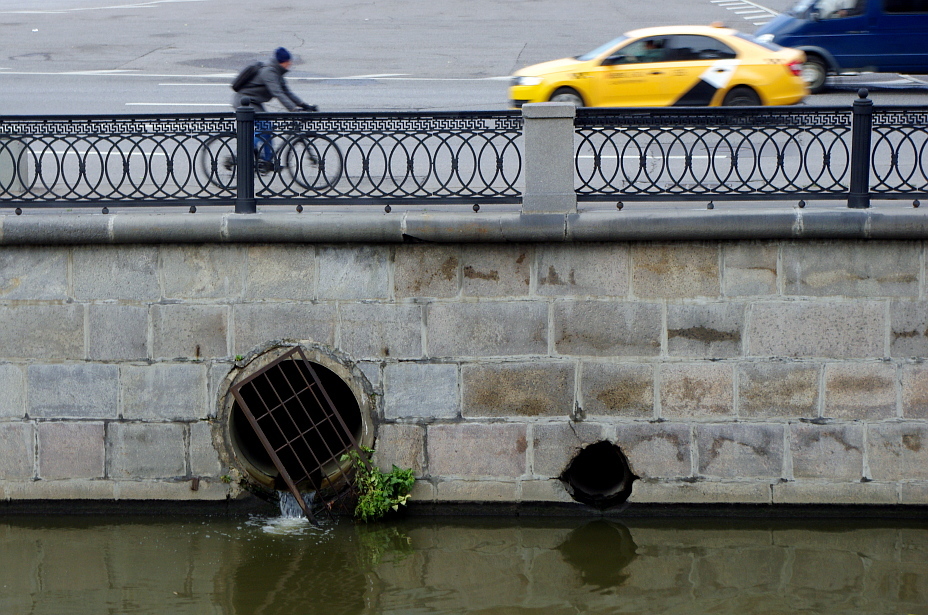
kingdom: Plantae
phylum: Tracheophyta
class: Magnoliopsida
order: Solanales
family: Solanaceae
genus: Solanum
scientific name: Solanum lycopersicum
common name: Garden tomato
